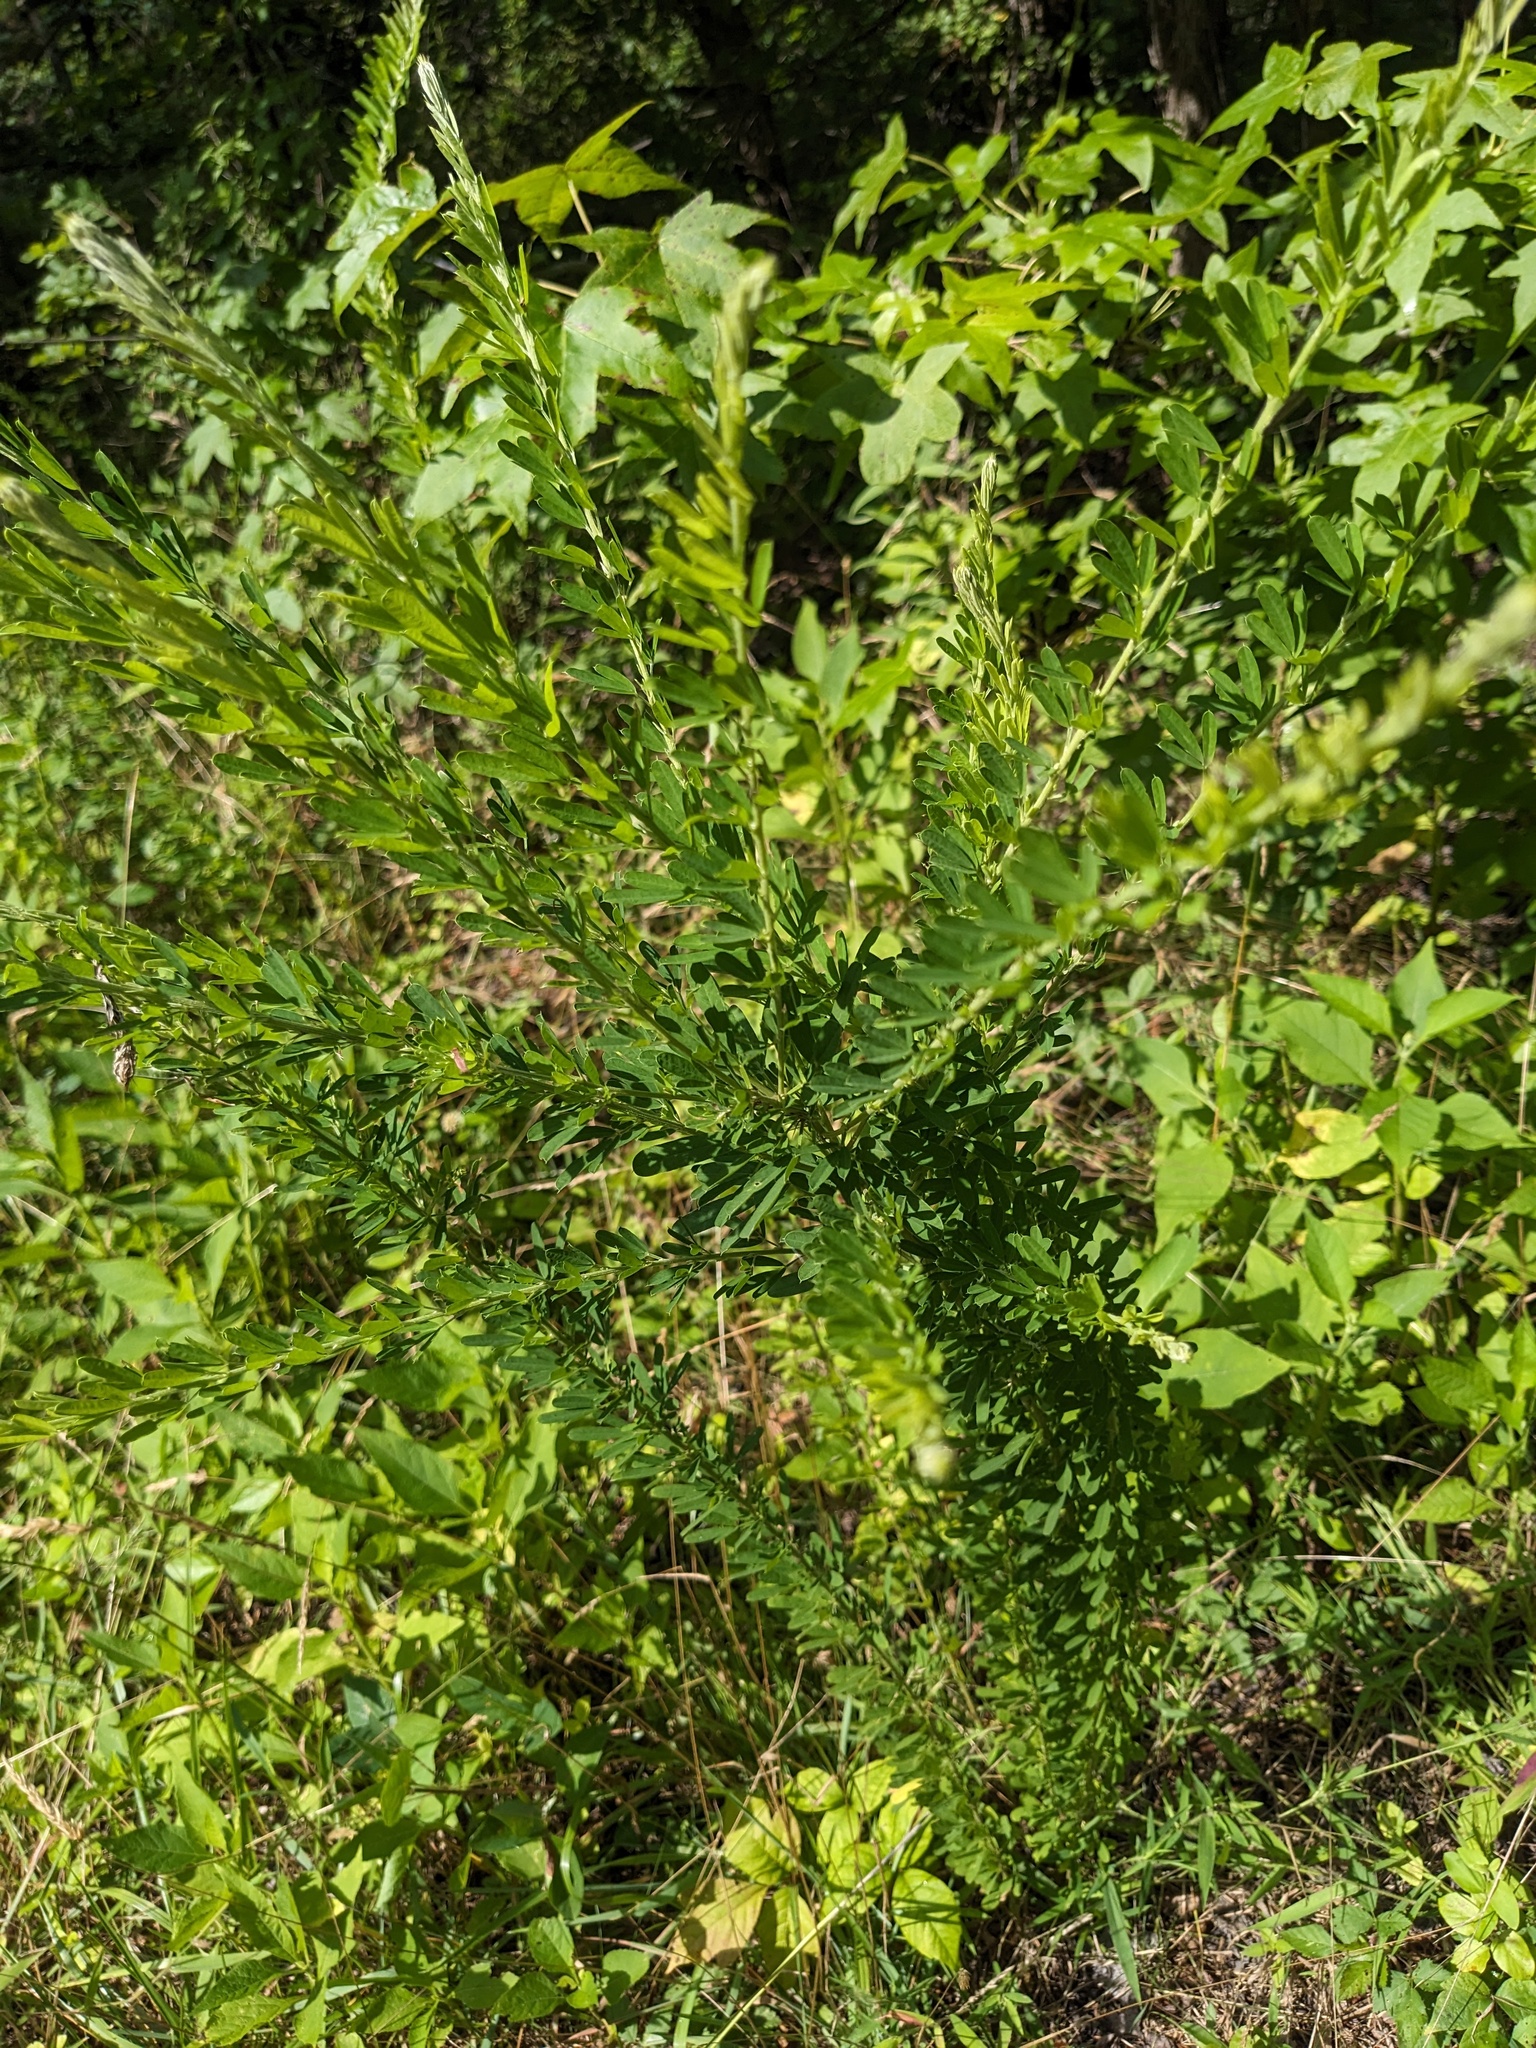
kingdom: Plantae
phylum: Tracheophyta
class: Magnoliopsida
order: Fabales
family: Fabaceae
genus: Lespedeza
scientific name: Lespedeza cuneata
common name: Chinese bush-clover
